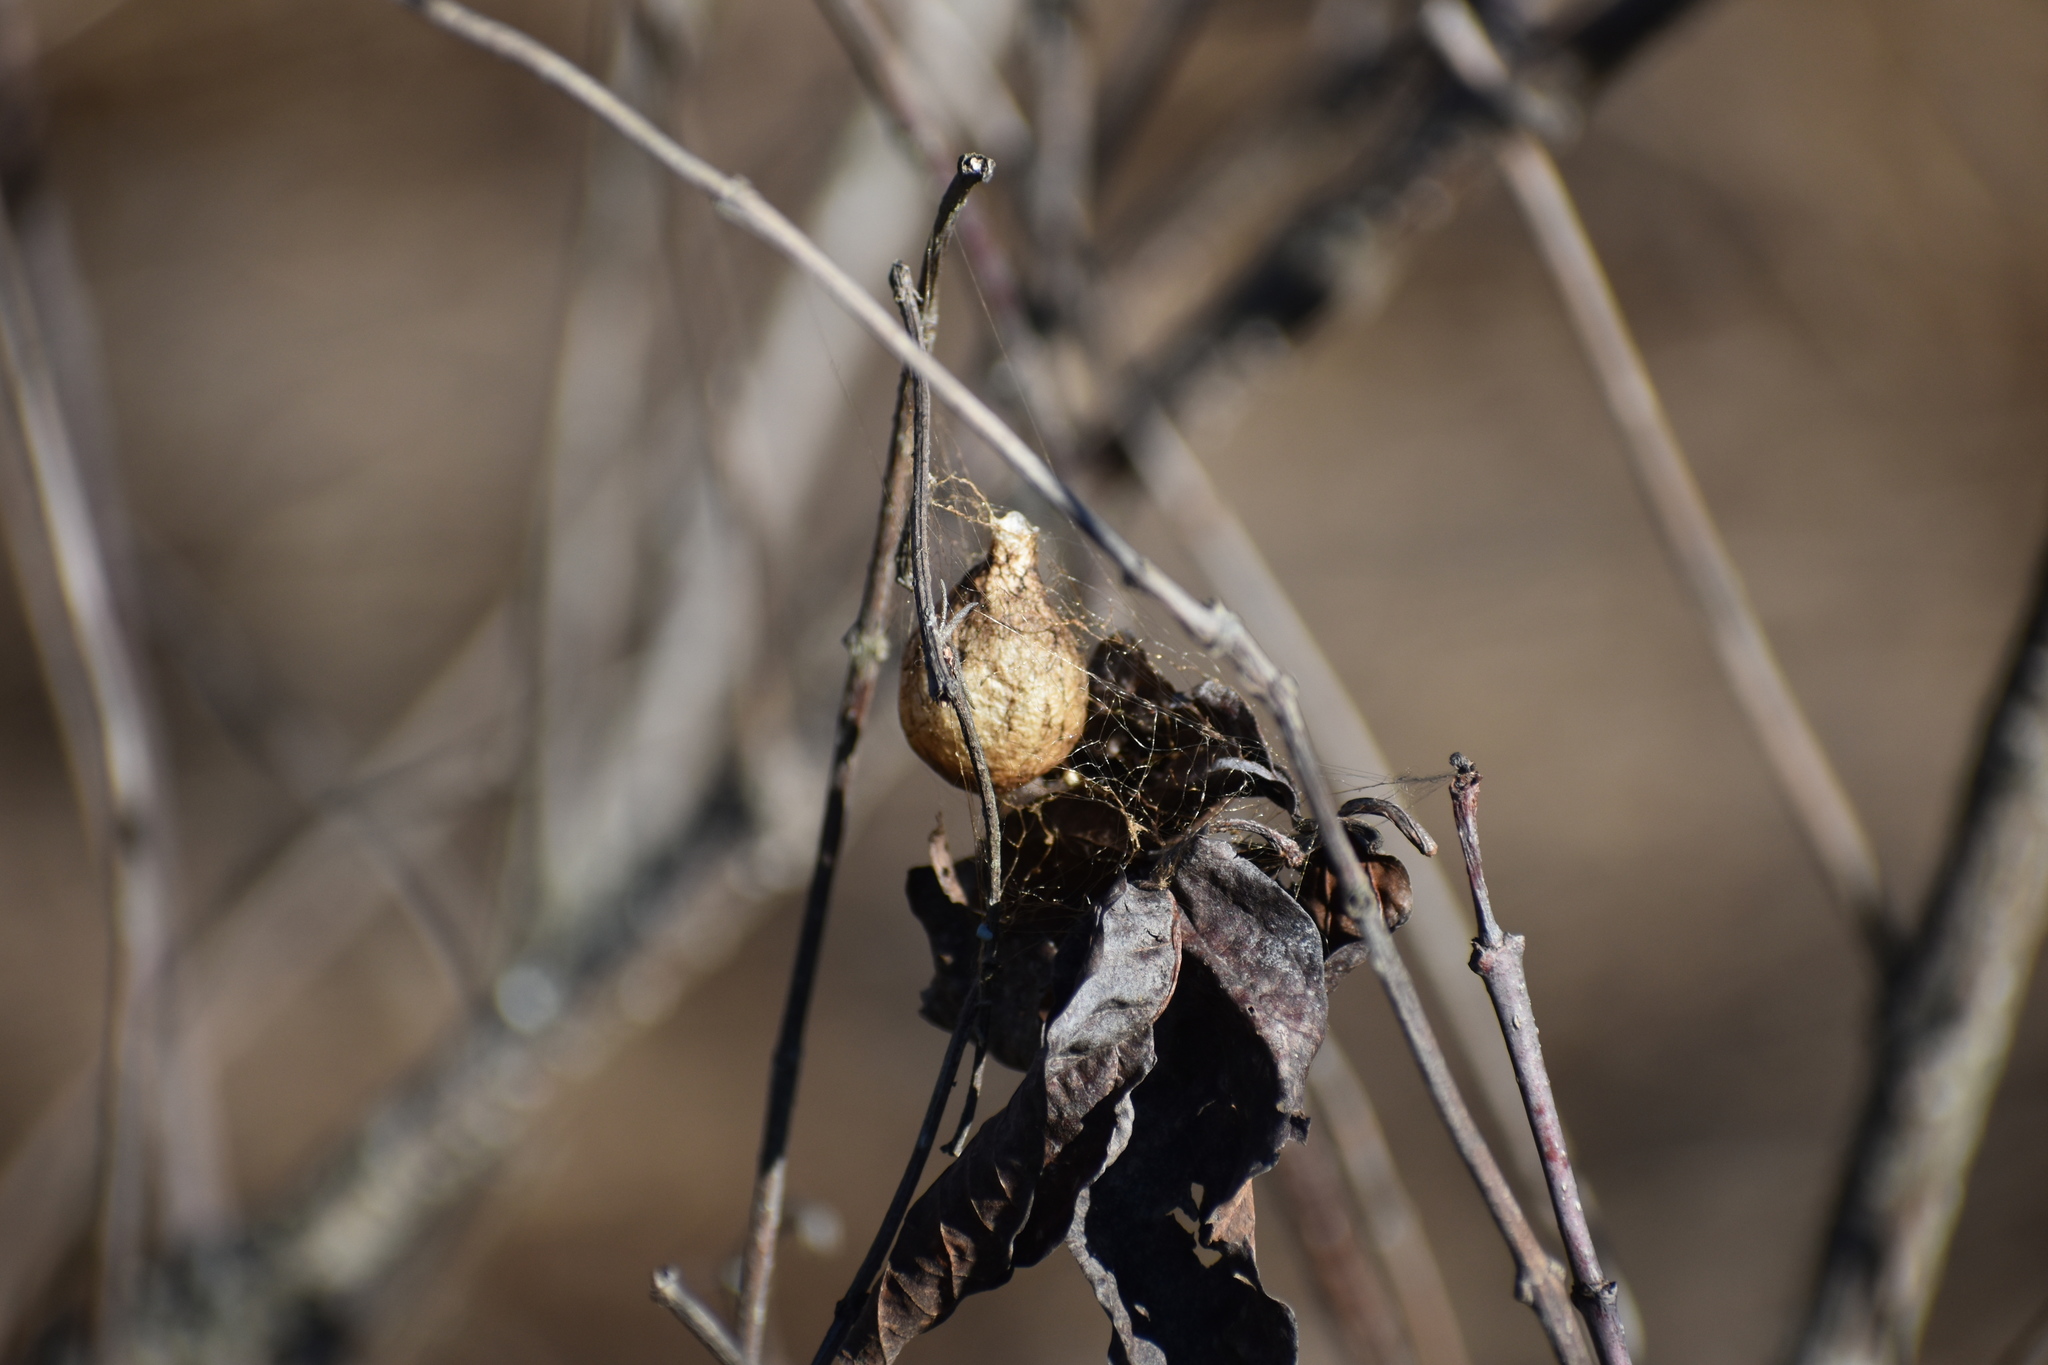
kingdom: Animalia
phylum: Arthropoda
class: Arachnida
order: Araneae
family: Araneidae
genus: Argiope
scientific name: Argiope aurantia
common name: Orb weavers
